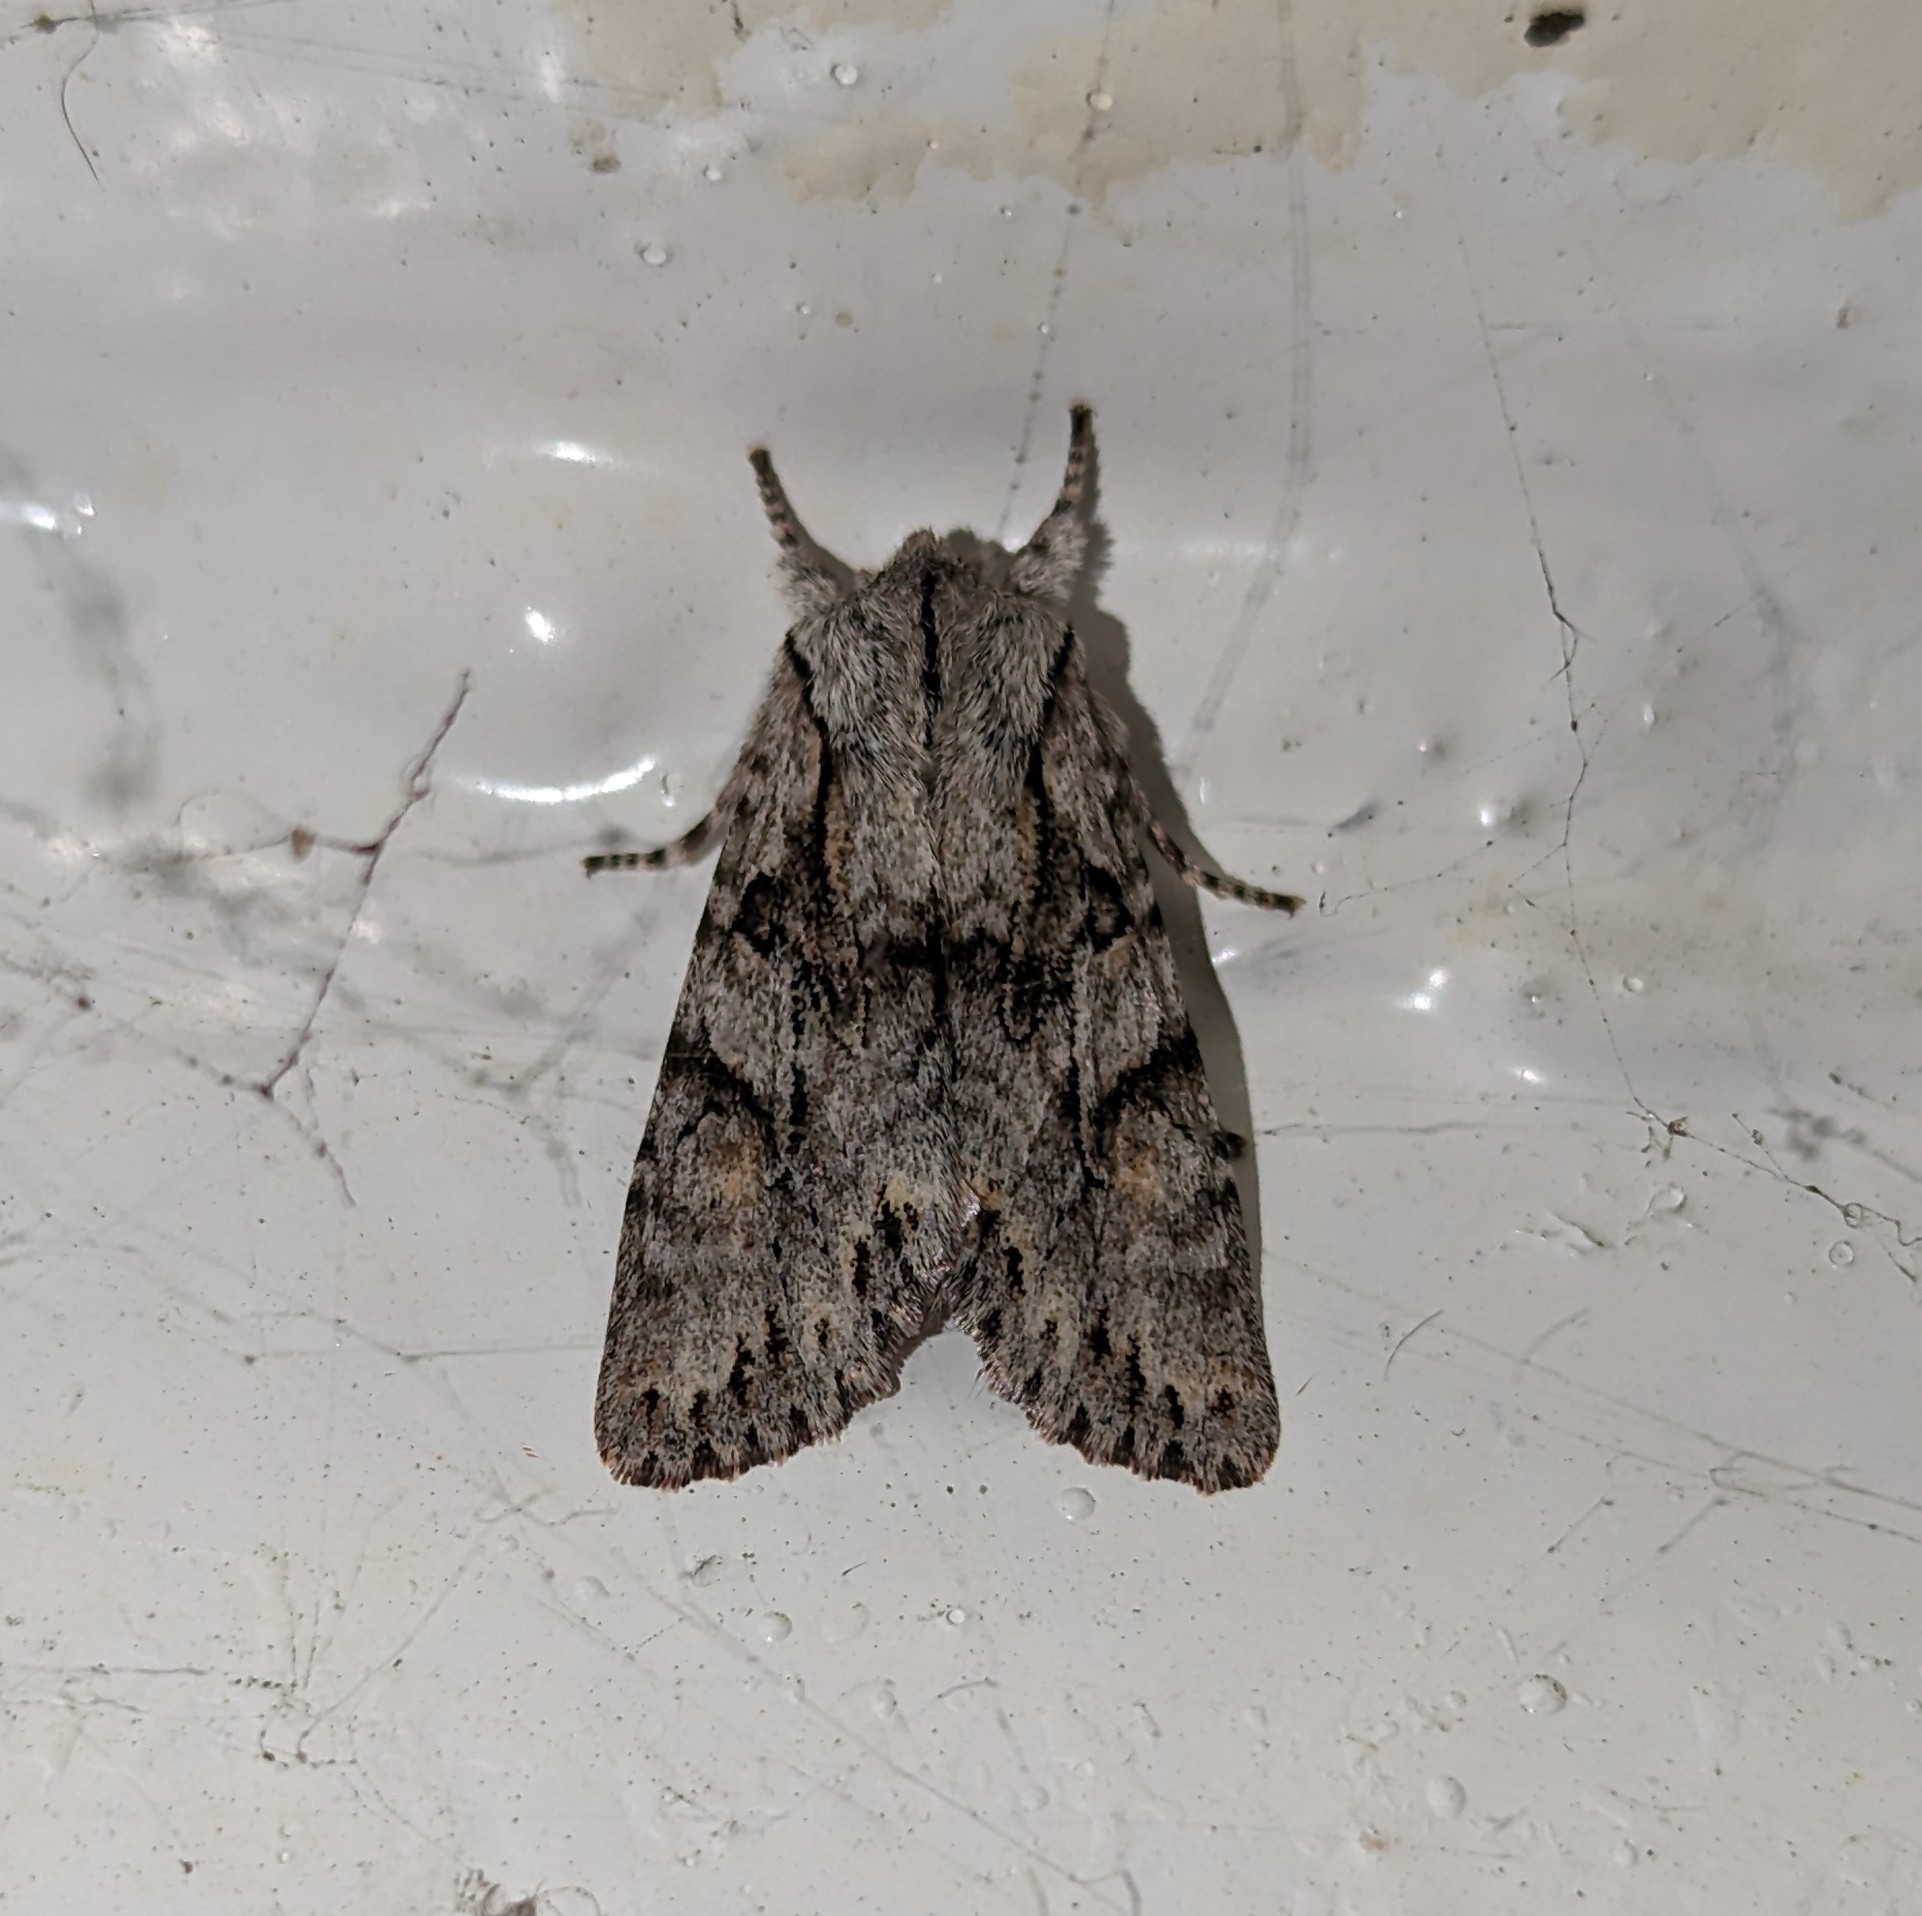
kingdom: Animalia
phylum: Arthropoda
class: Insecta
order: Lepidoptera
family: Noctuidae
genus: Egira
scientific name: Egira simplex
